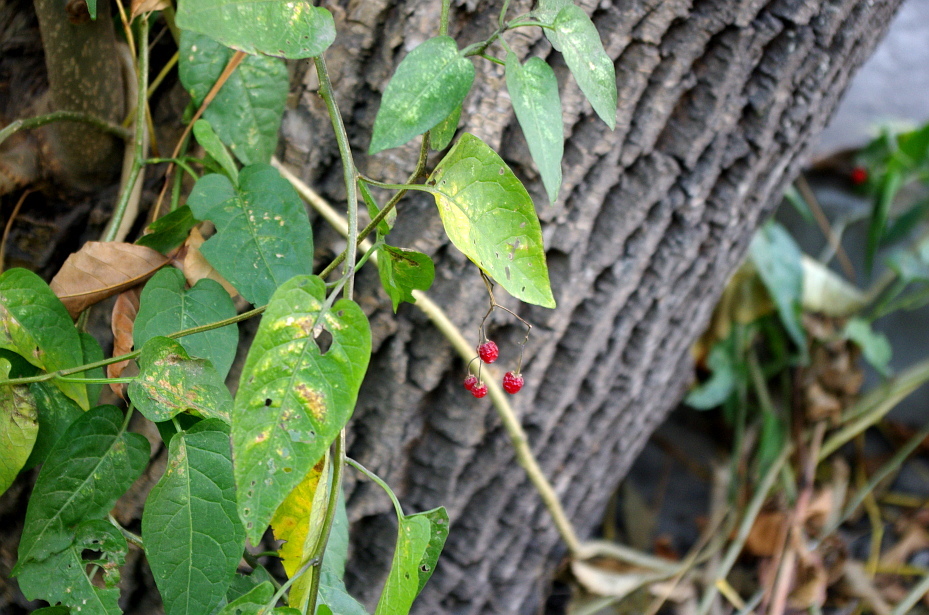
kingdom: Plantae
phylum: Tracheophyta
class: Magnoliopsida
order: Solanales
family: Solanaceae
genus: Solanum
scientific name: Solanum dulcamara
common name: Climbing nightshade
